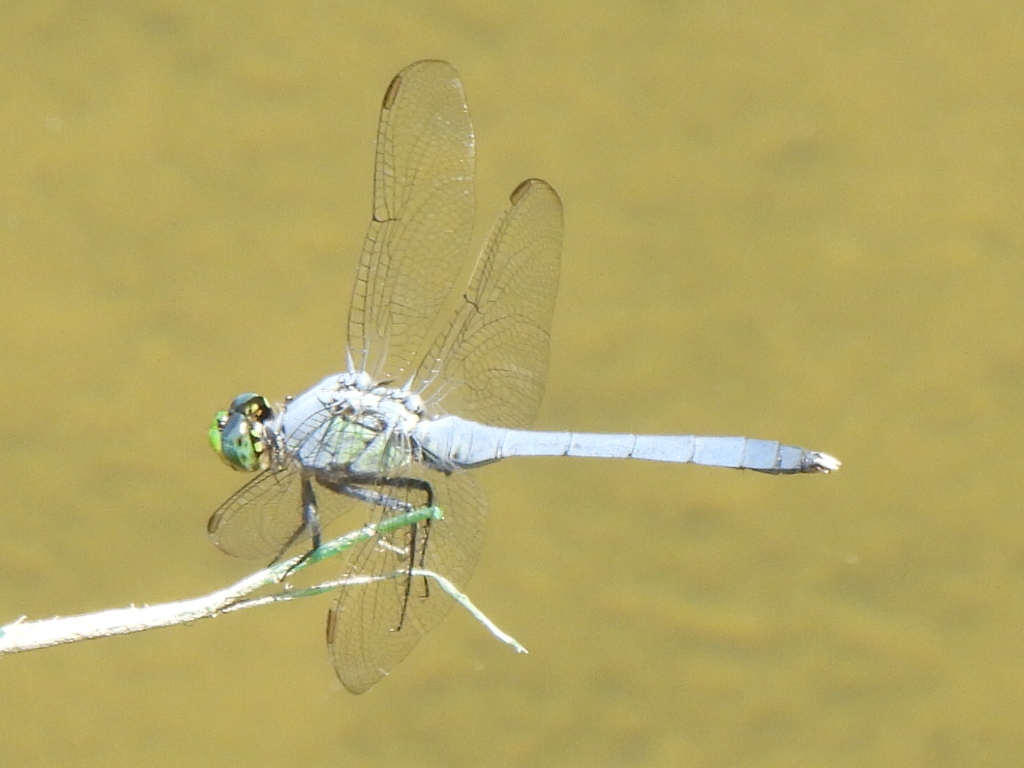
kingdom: Animalia
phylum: Arthropoda
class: Insecta
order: Odonata
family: Libellulidae
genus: Erythemis
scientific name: Erythemis simplicicollis
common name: Eastern pondhawk
